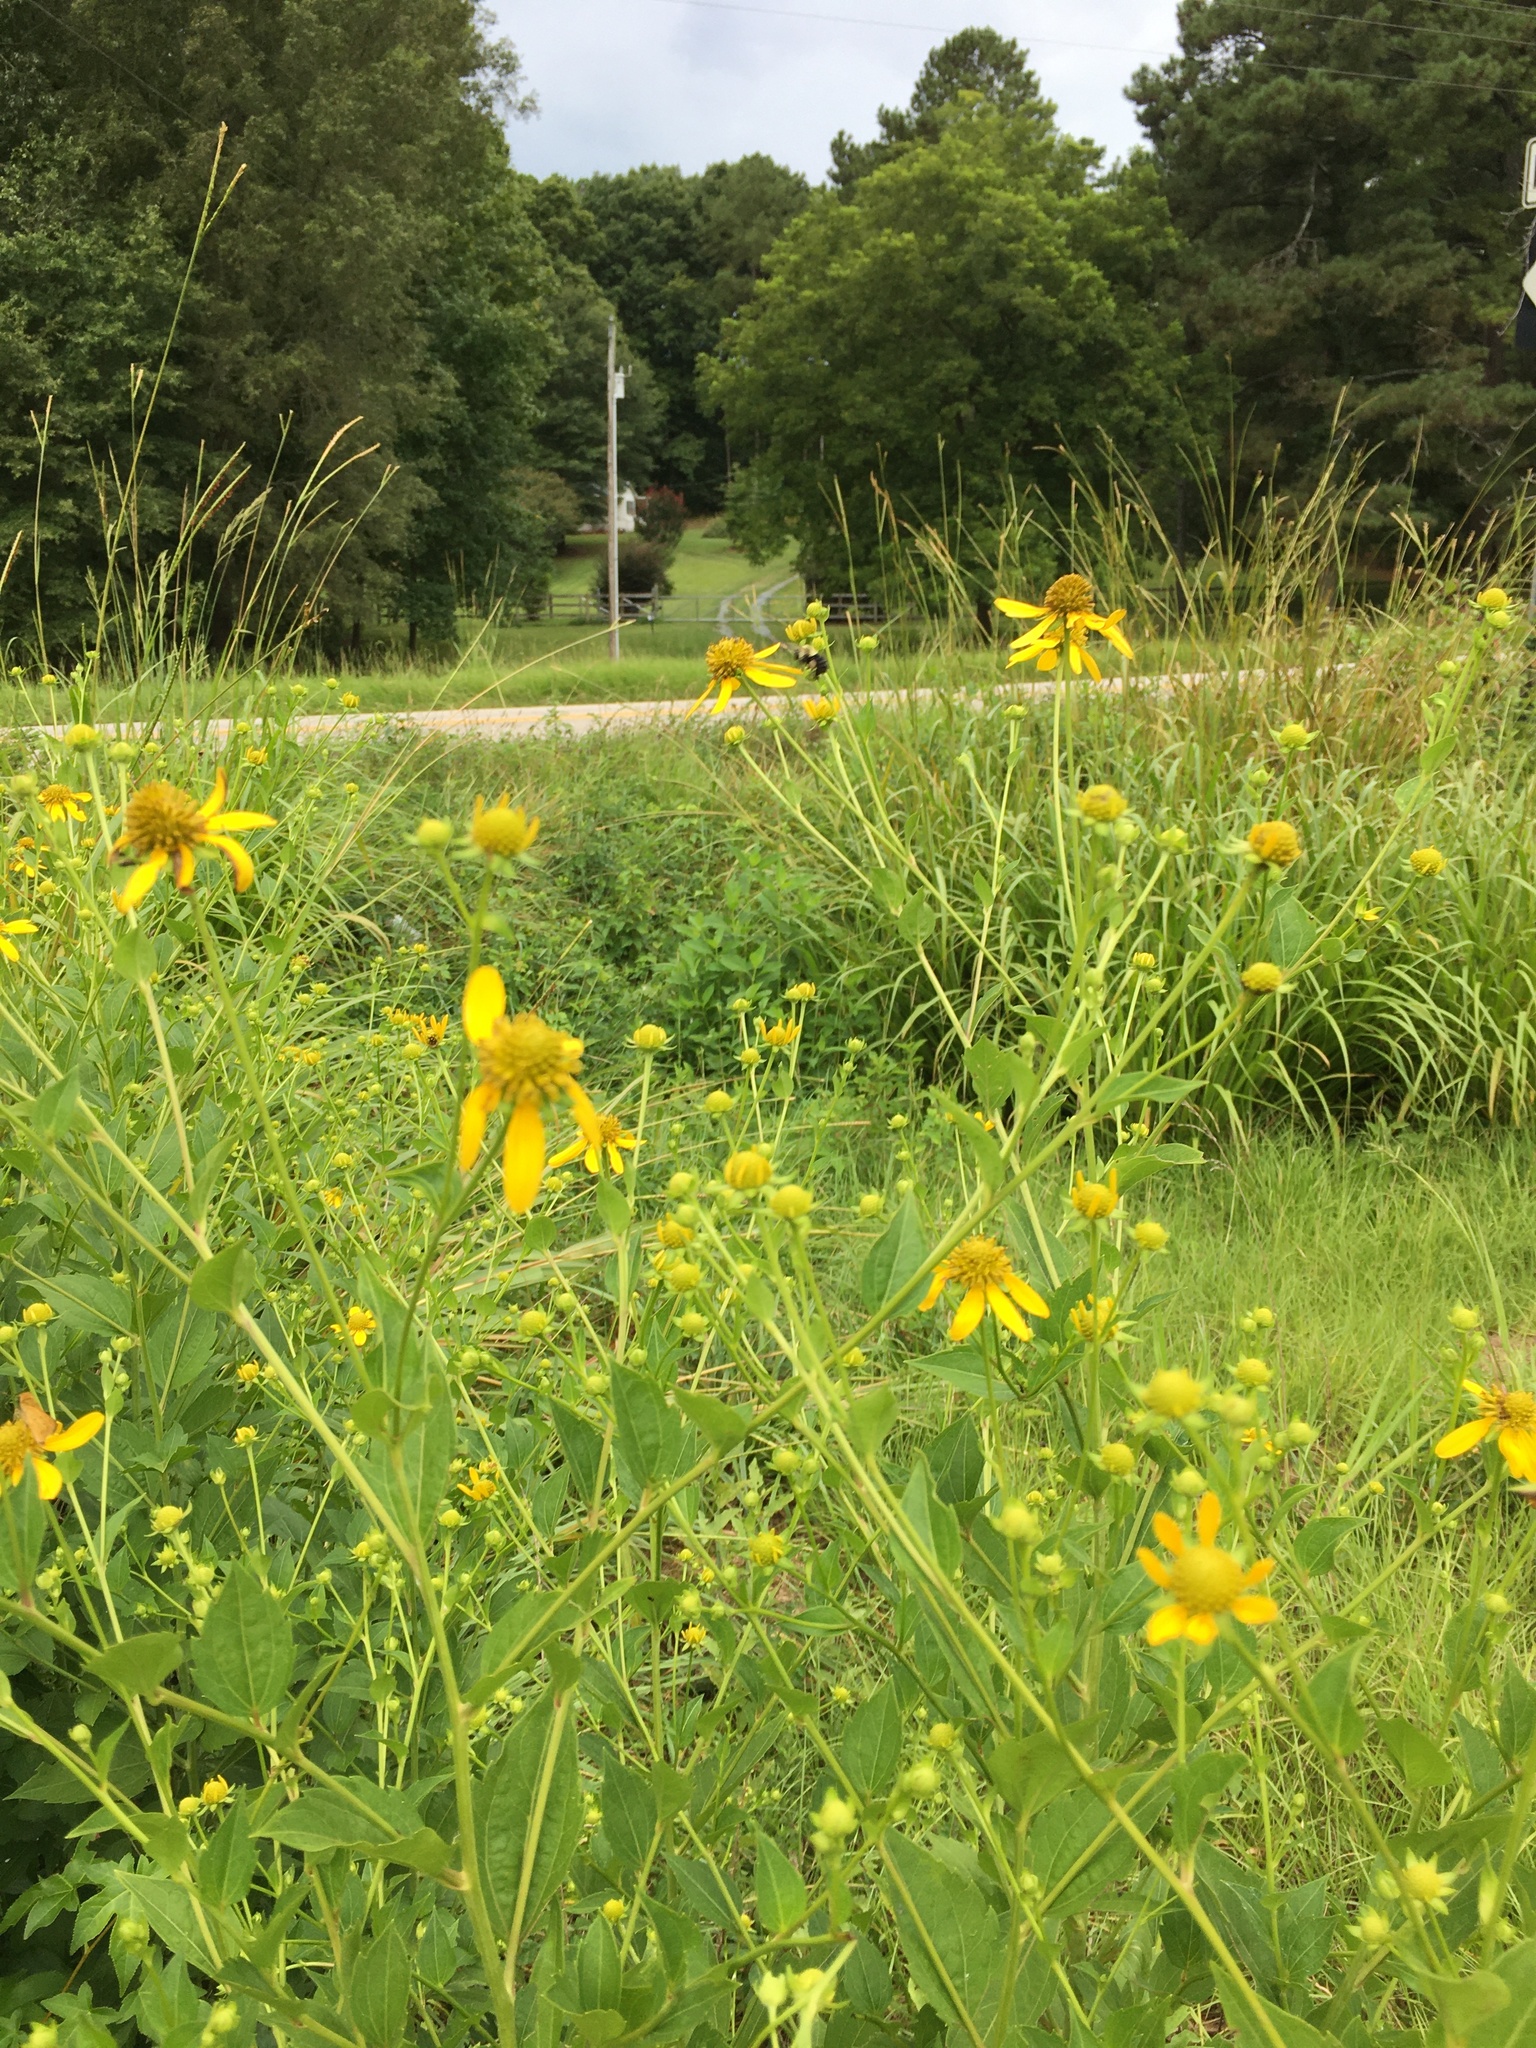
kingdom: Plantae
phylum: Tracheophyta
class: Magnoliopsida
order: Asterales
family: Asteraceae
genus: Rudbeckia
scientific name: Rudbeckia laciniata
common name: Coneflower
